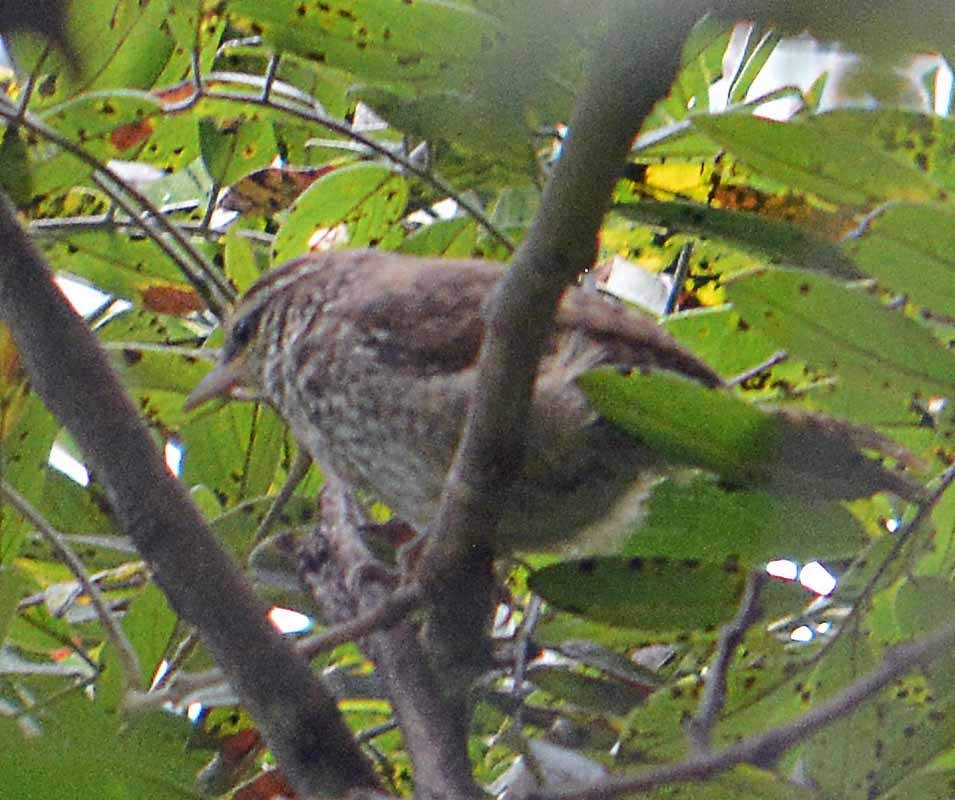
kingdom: Animalia
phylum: Chordata
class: Aves
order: Passeriformes
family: Troglodytidae
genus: Thryophilus
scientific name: Thryophilus pleurostictus
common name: Banded wren
